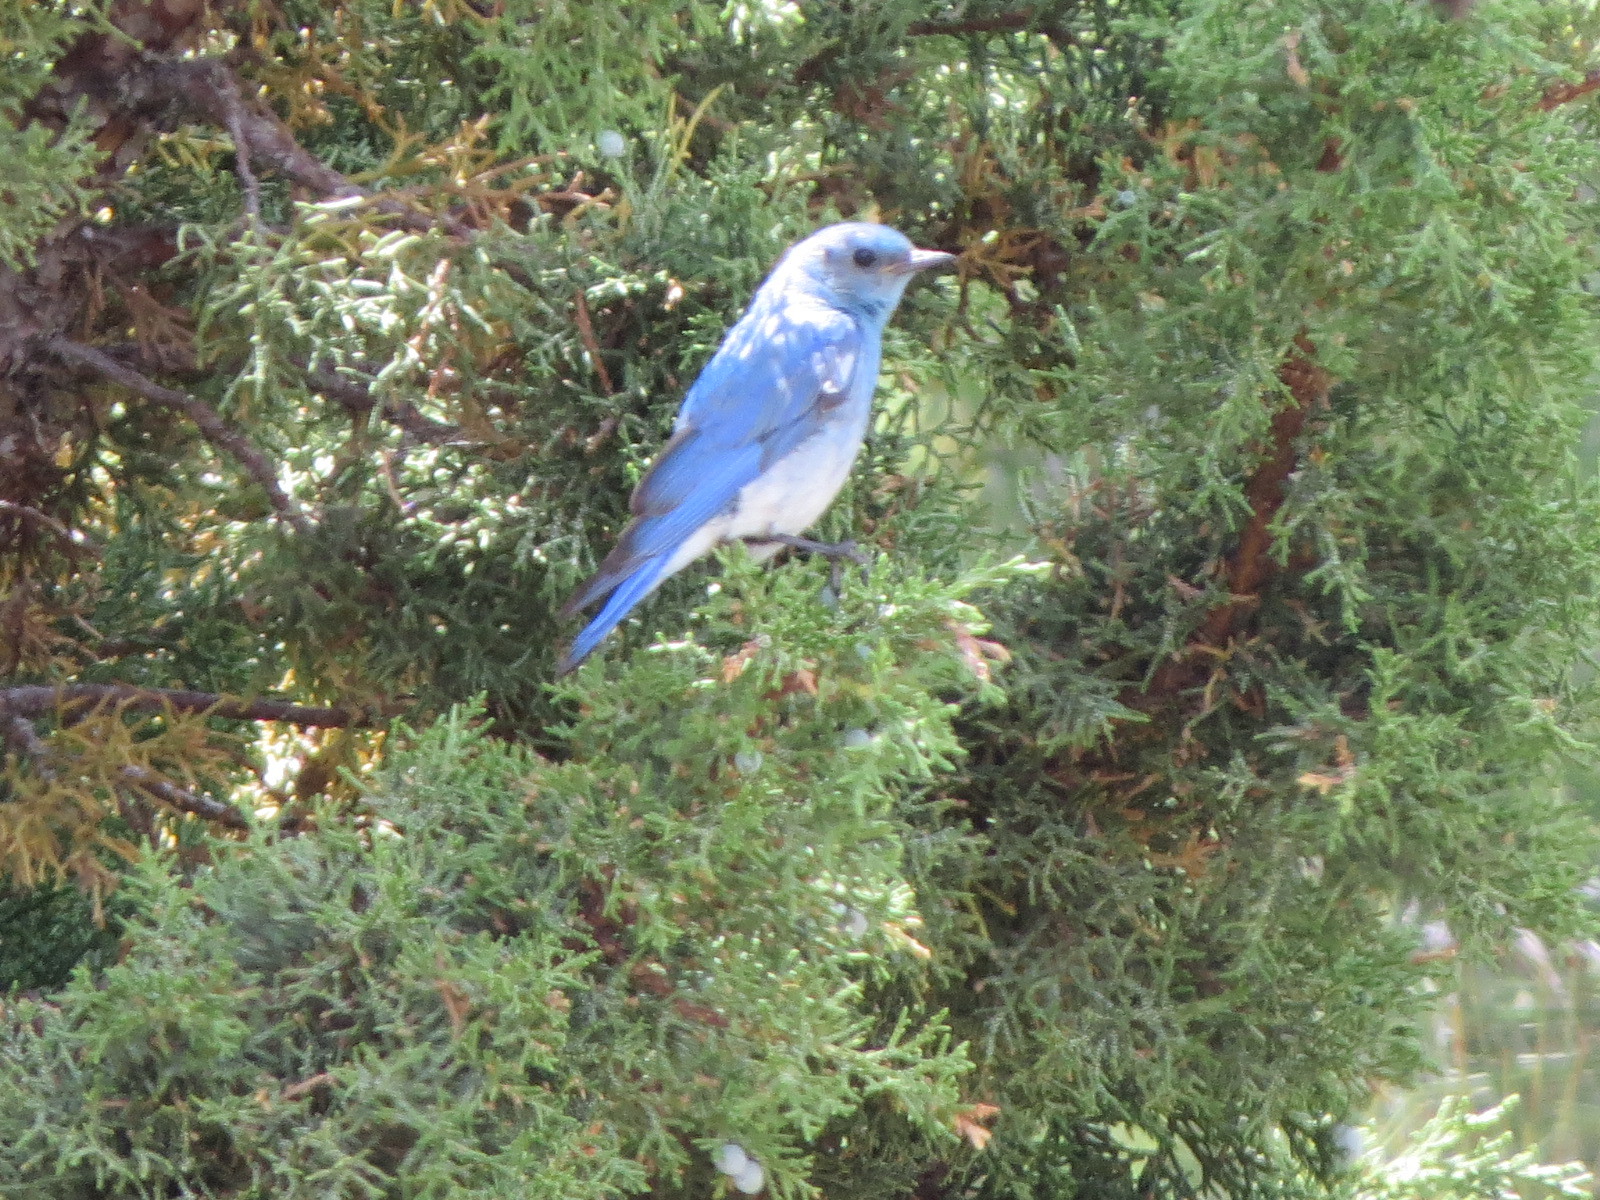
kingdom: Animalia
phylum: Chordata
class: Aves
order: Passeriformes
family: Turdidae
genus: Sialia
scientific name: Sialia currucoides
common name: Mountain bluebird
